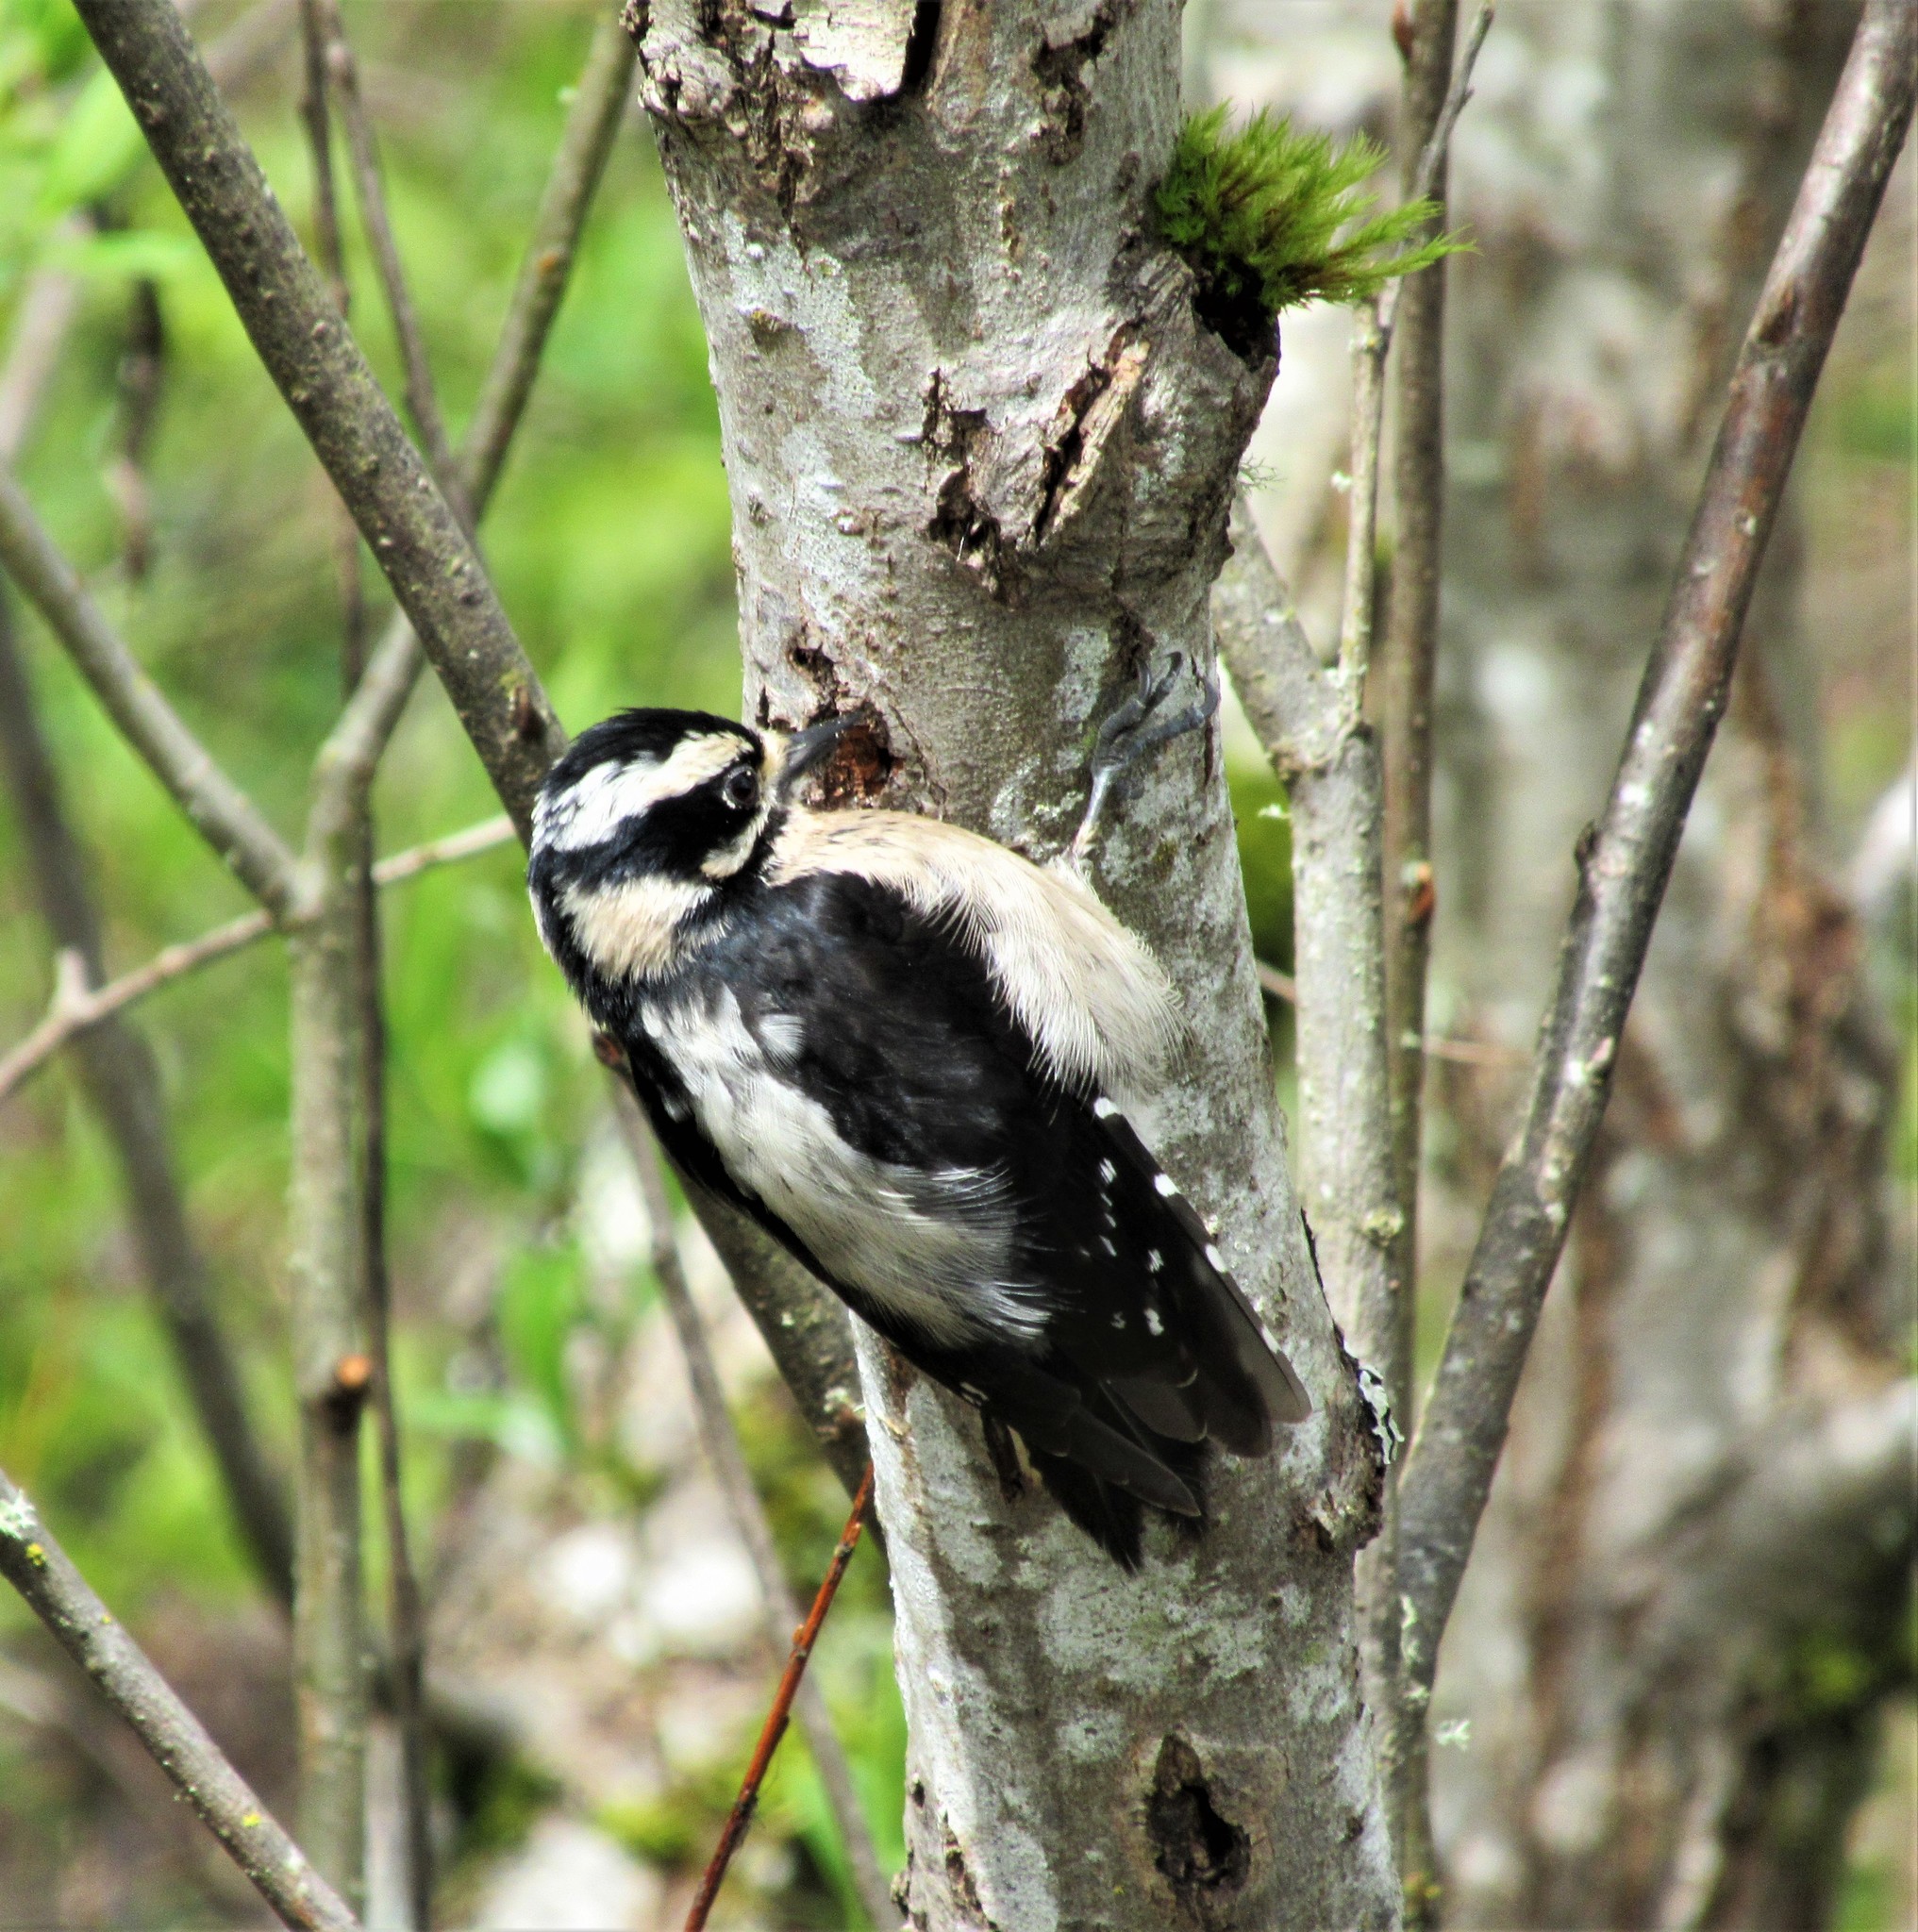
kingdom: Animalia
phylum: Chordata
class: Aves
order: Piciformes
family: Picidae
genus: Dryobates
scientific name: Dryobates pubescens
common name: Downy woodpecker
